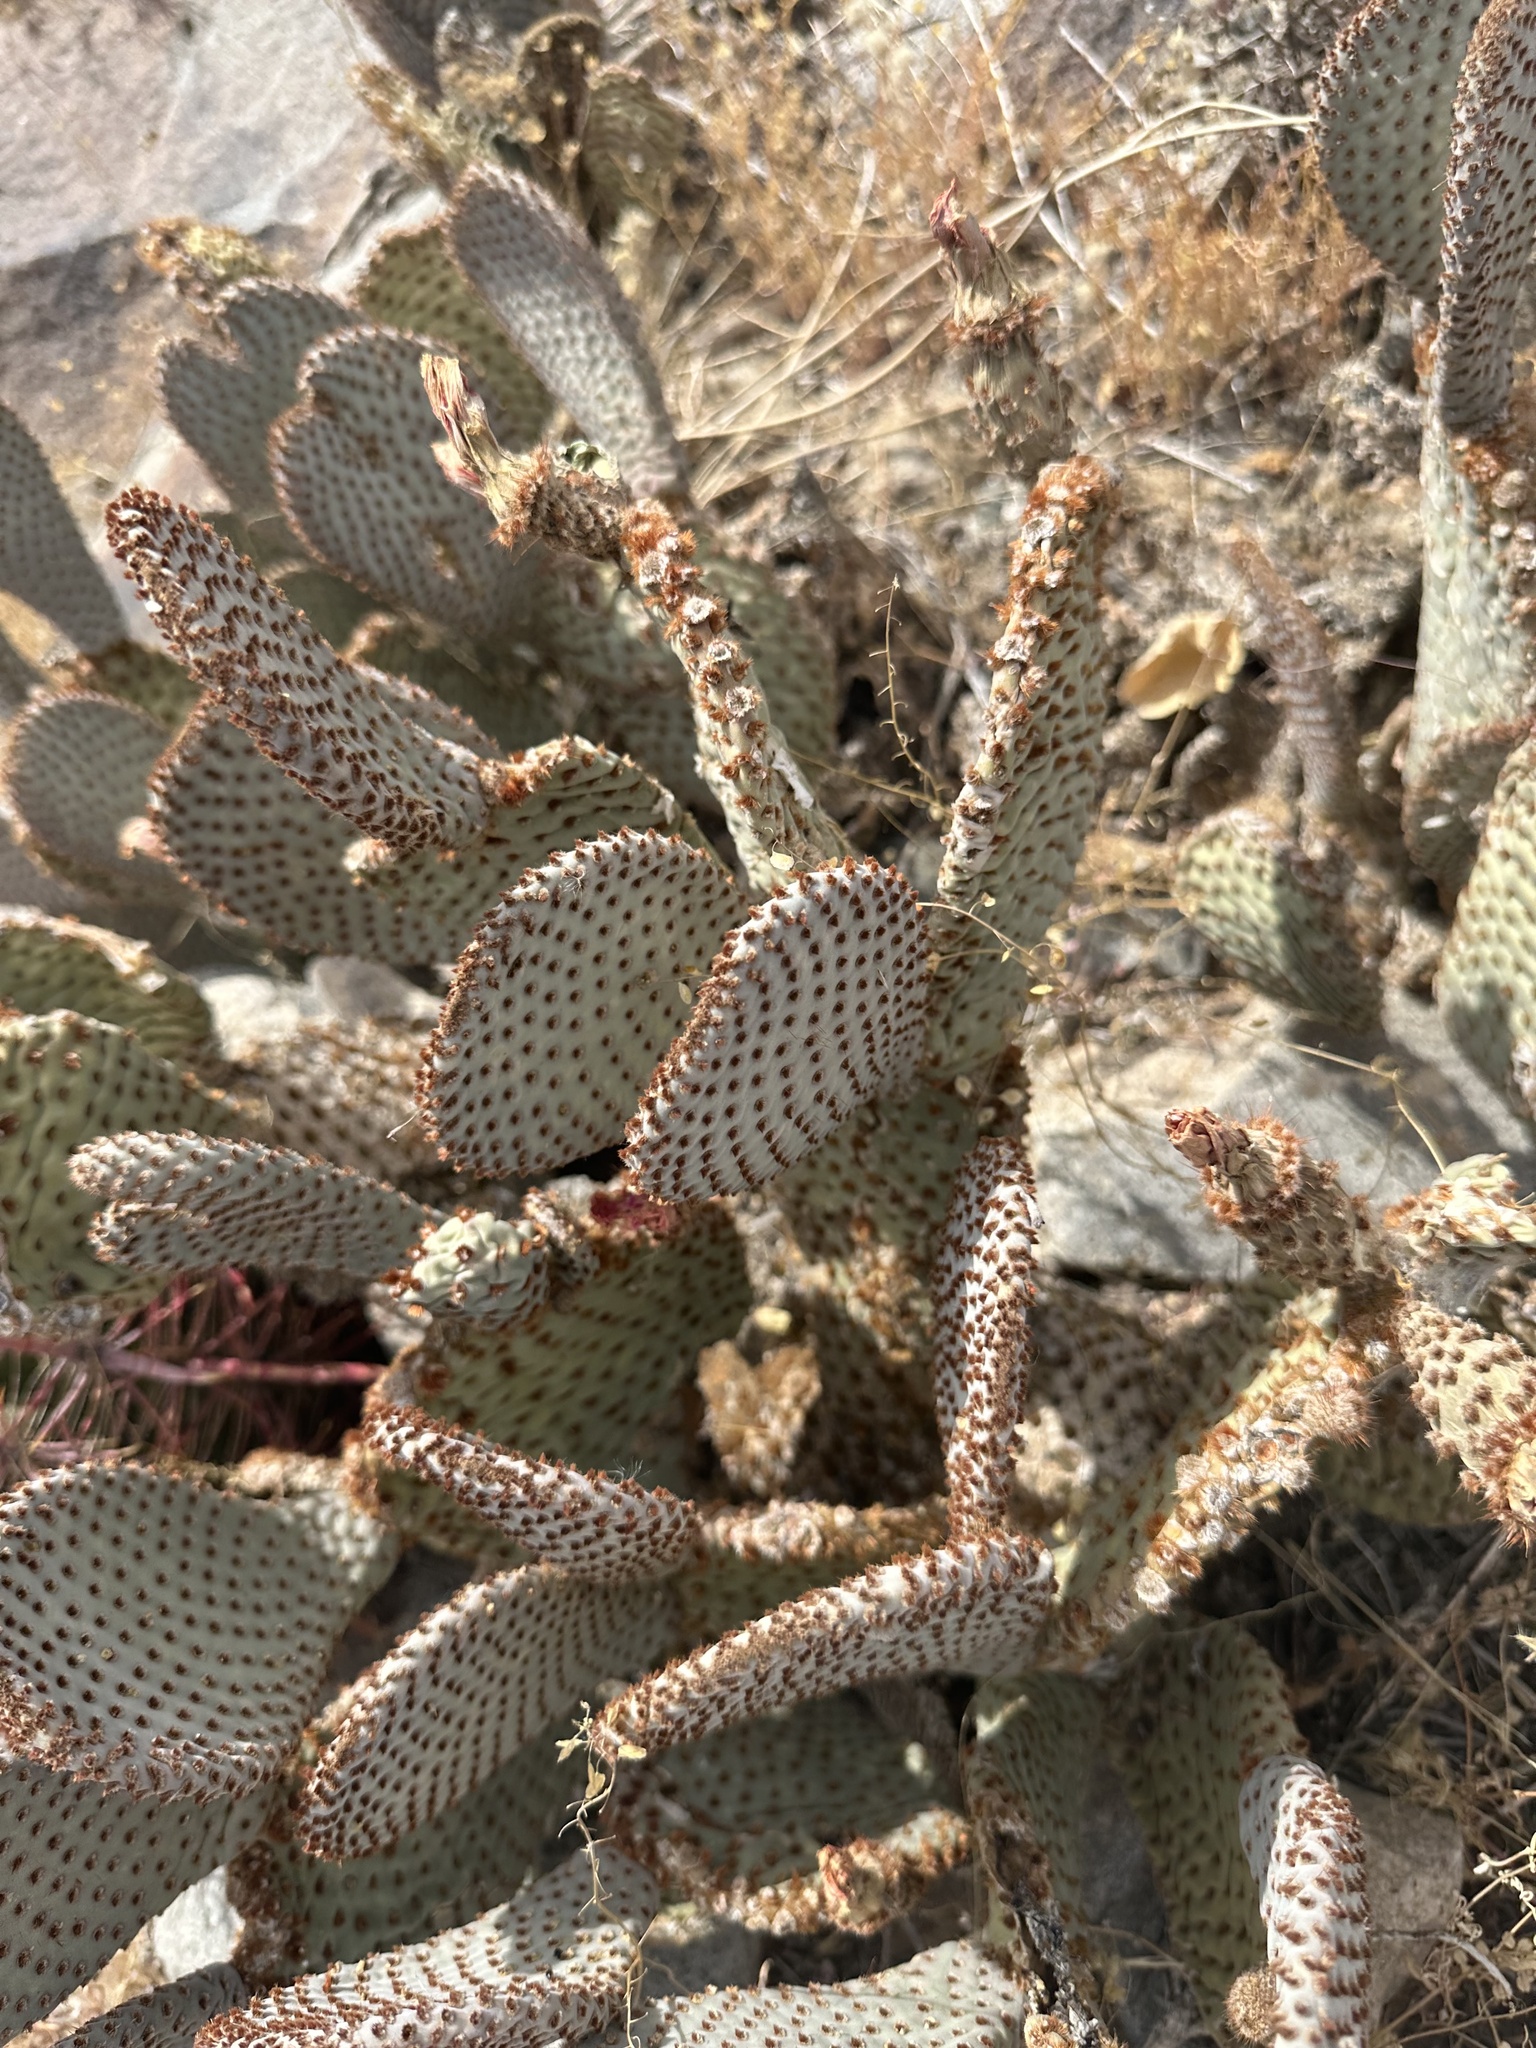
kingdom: Plantae
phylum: Tracheophyta
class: Magnoliopsida
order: Caryophyllales
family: Cactaceae
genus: Opuntia
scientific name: Opuntia basilaris
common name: Beavertail prickly-pear
